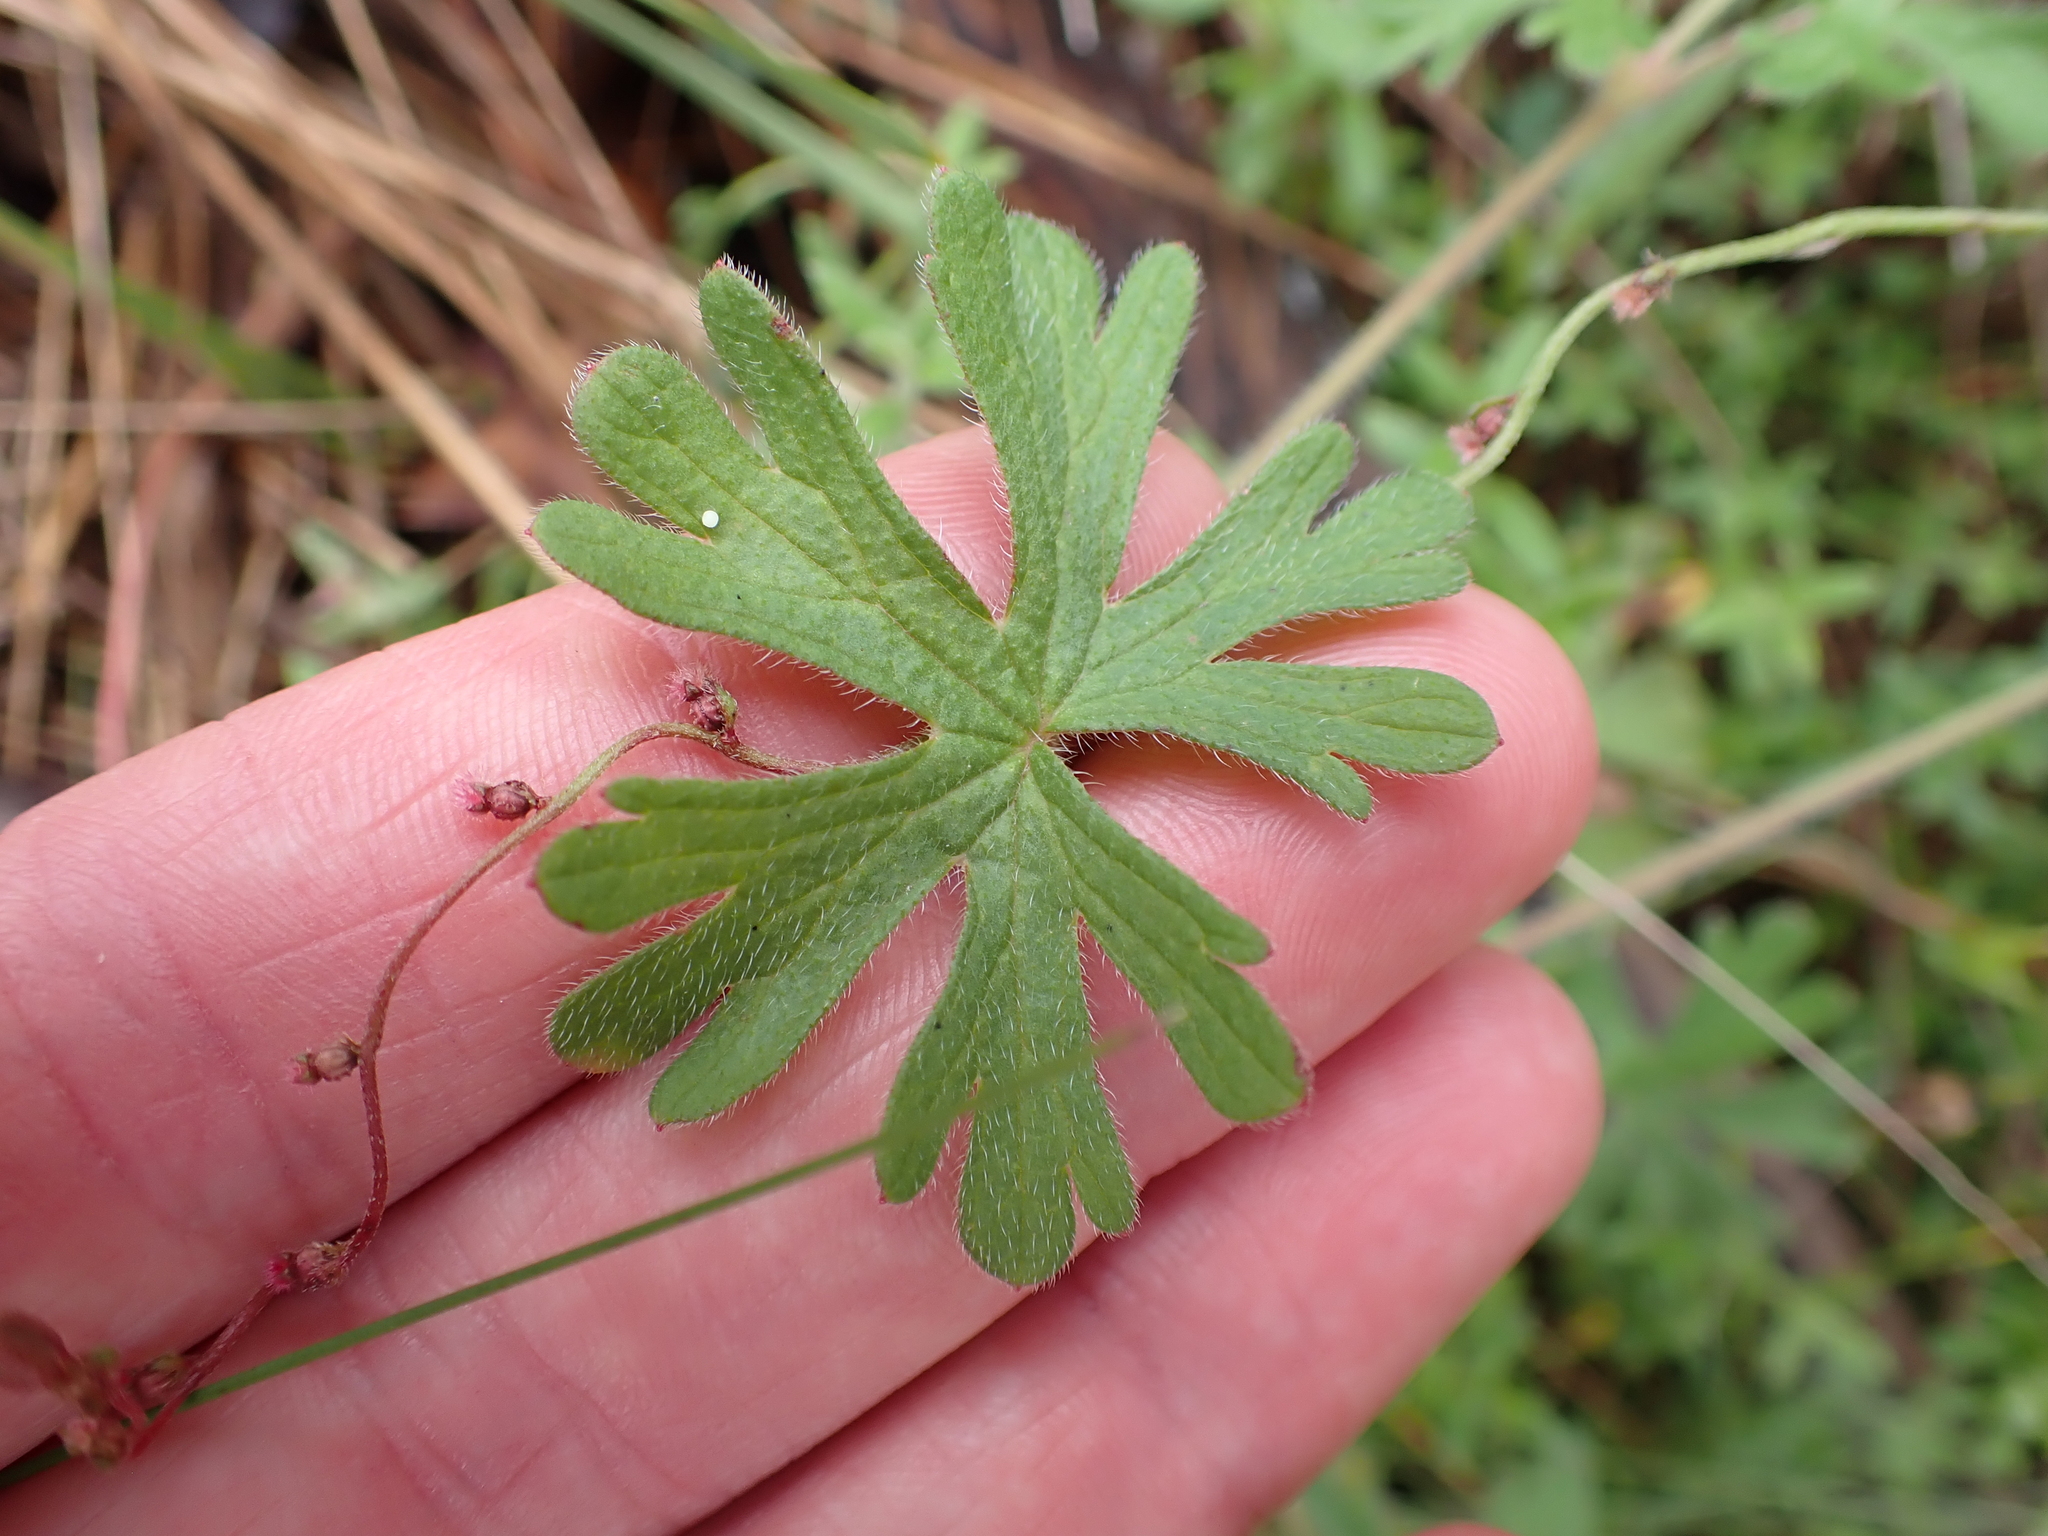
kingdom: Plantae
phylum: Tracheophyta
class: Magnoliopsida
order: Geraniales
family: Geraniaceae
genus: Geranium
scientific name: Geranium solanderi
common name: Solander's geranium
